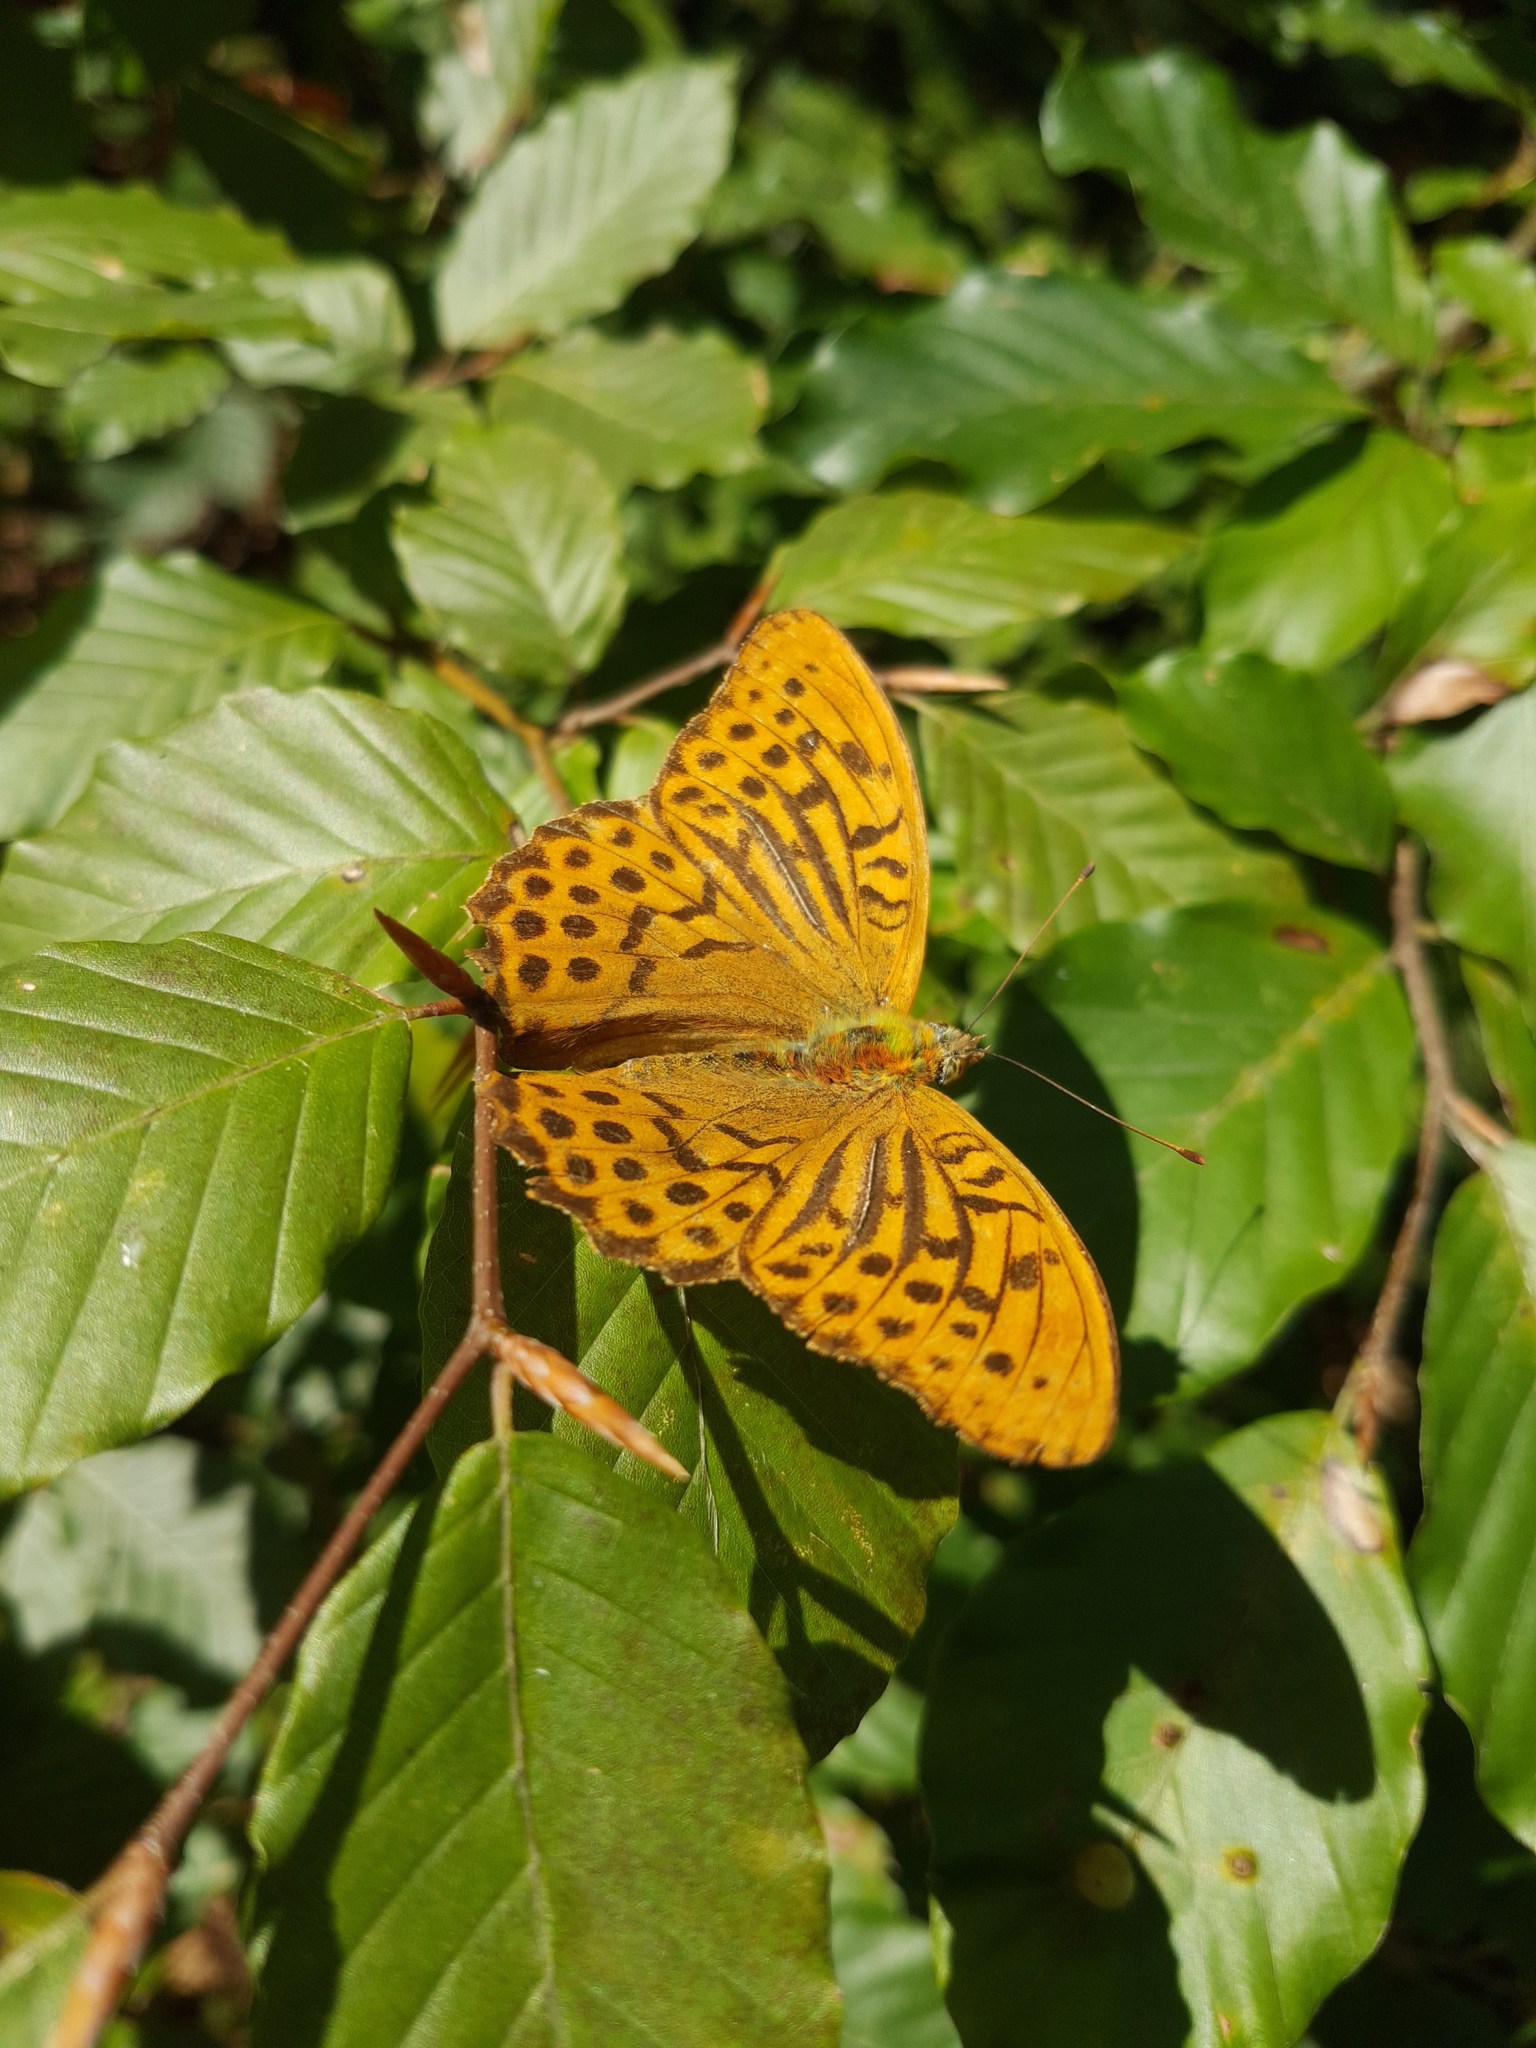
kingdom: Animalia
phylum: Arthropoda
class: Insecta
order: Lepidoptera
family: Nymphalidae
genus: Argynnis
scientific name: Argynnis paphia
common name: Silver-washed fritillary
